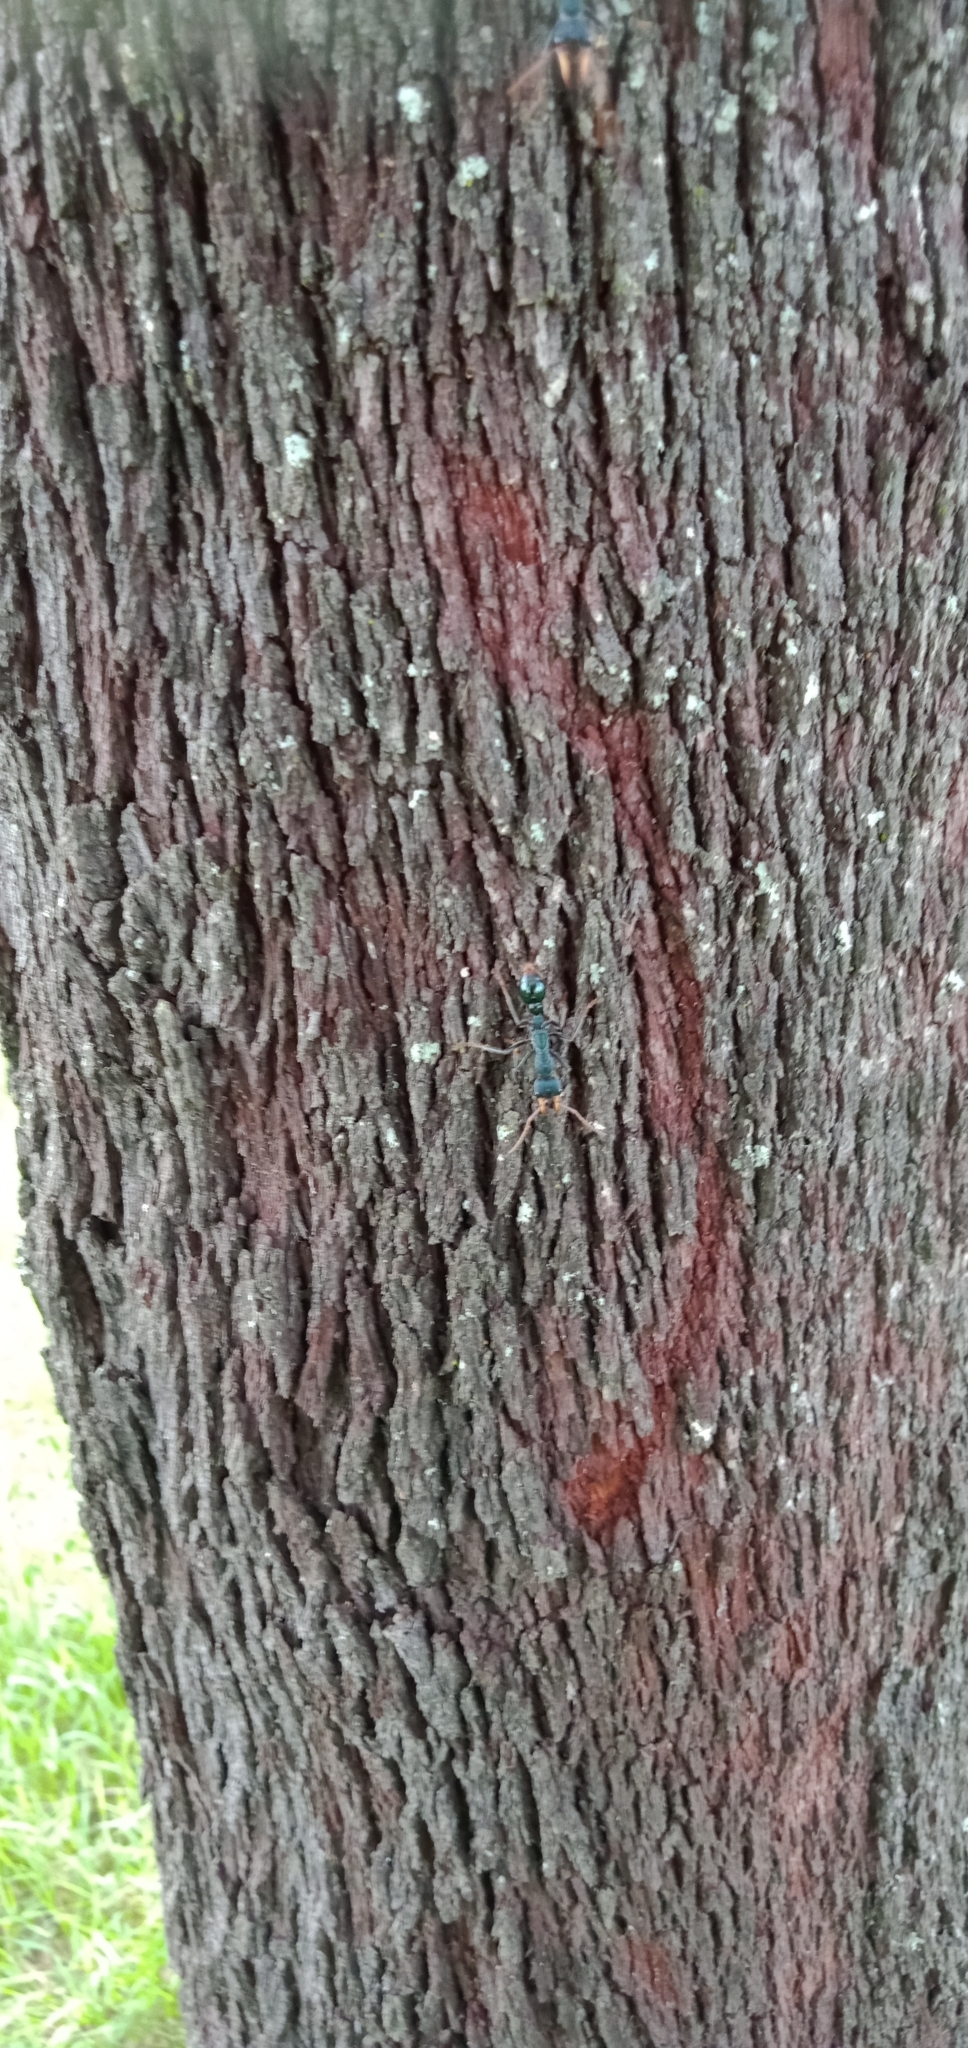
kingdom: Animalia
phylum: Arthropoda
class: Insecta
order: Hymenoptera
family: Formicidae
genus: Myrmecia
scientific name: Myrmecia tarsata
